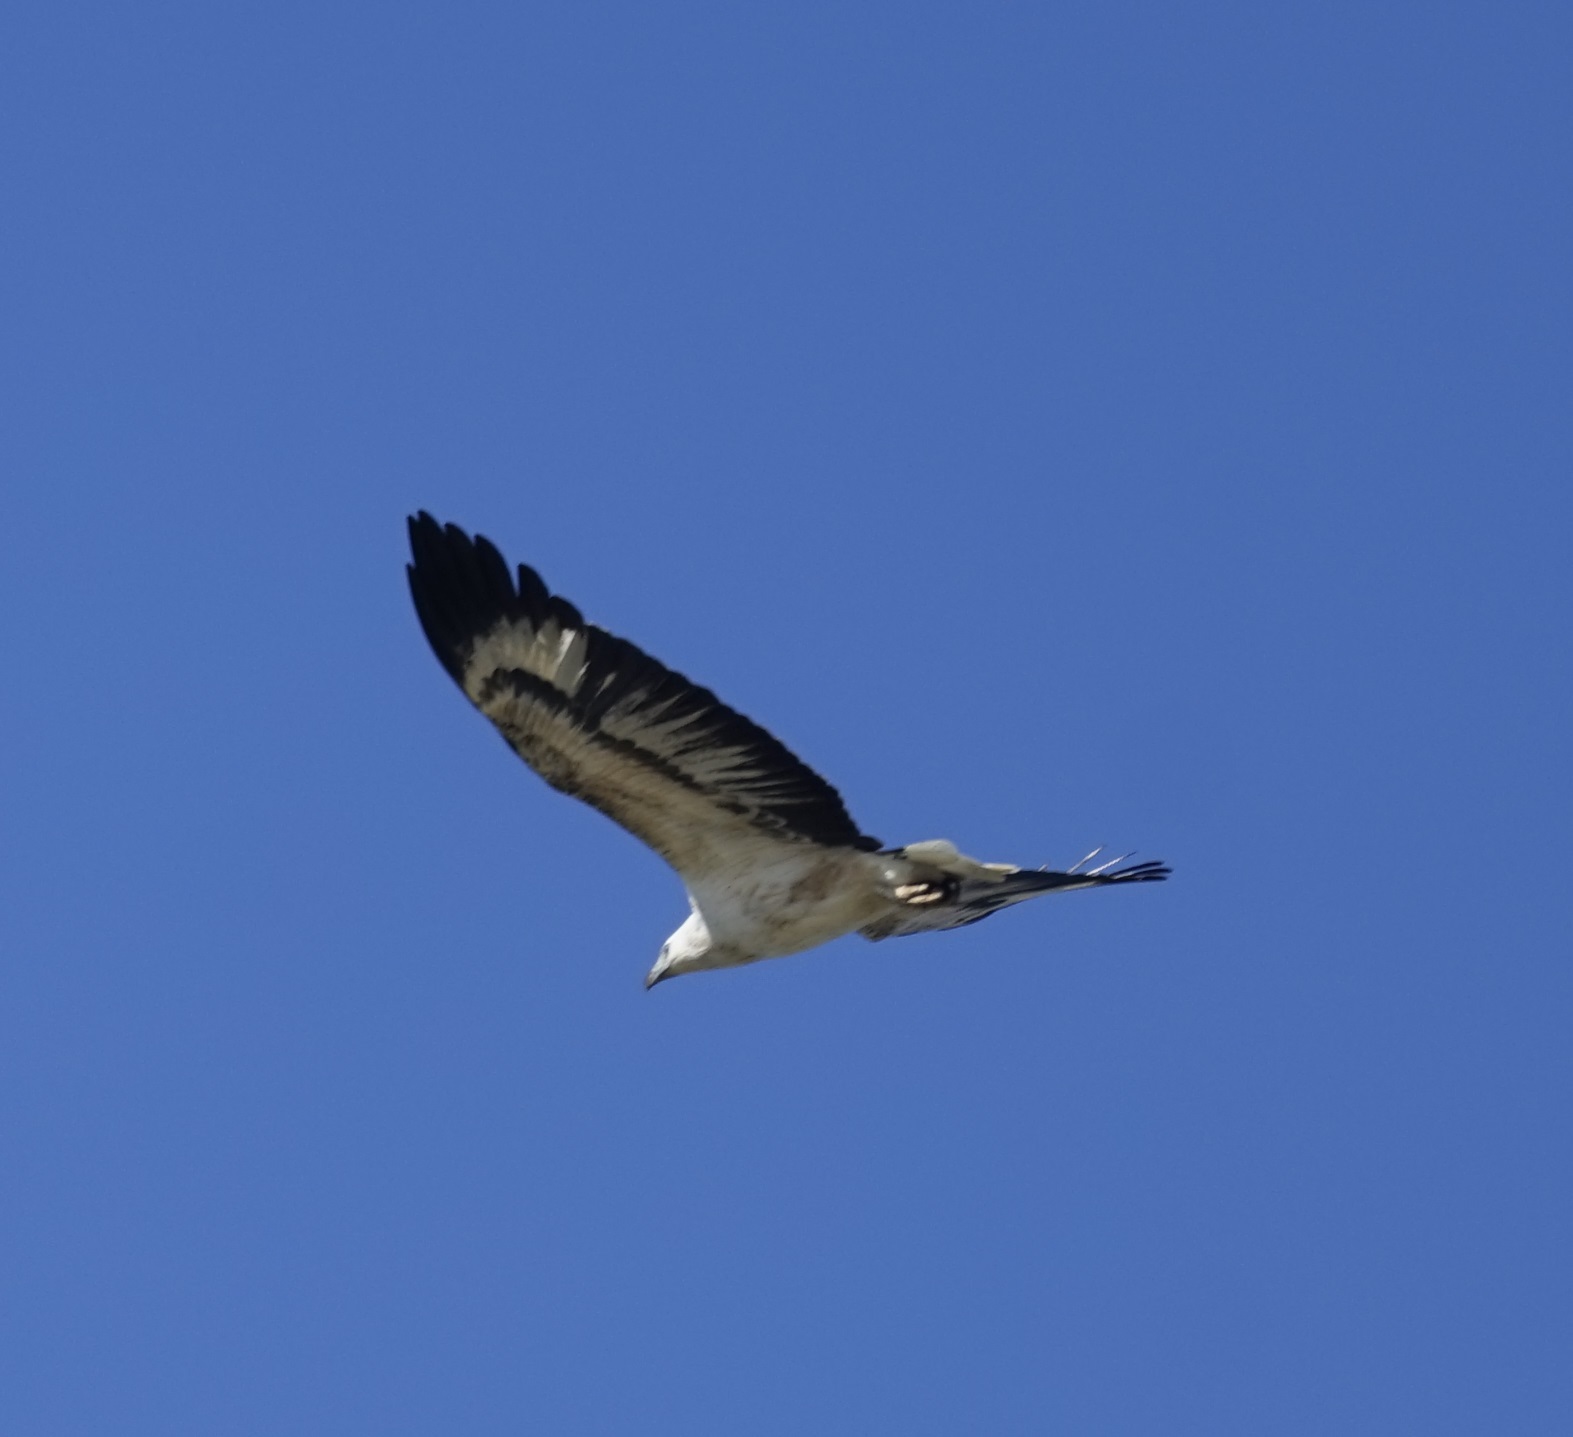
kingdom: Animalia
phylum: Chordata
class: Aves
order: Accipitriformes
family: Accipitridae
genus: Haliaeetus
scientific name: Haliaeetus leucogaster
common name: White-bellied sea eagle
